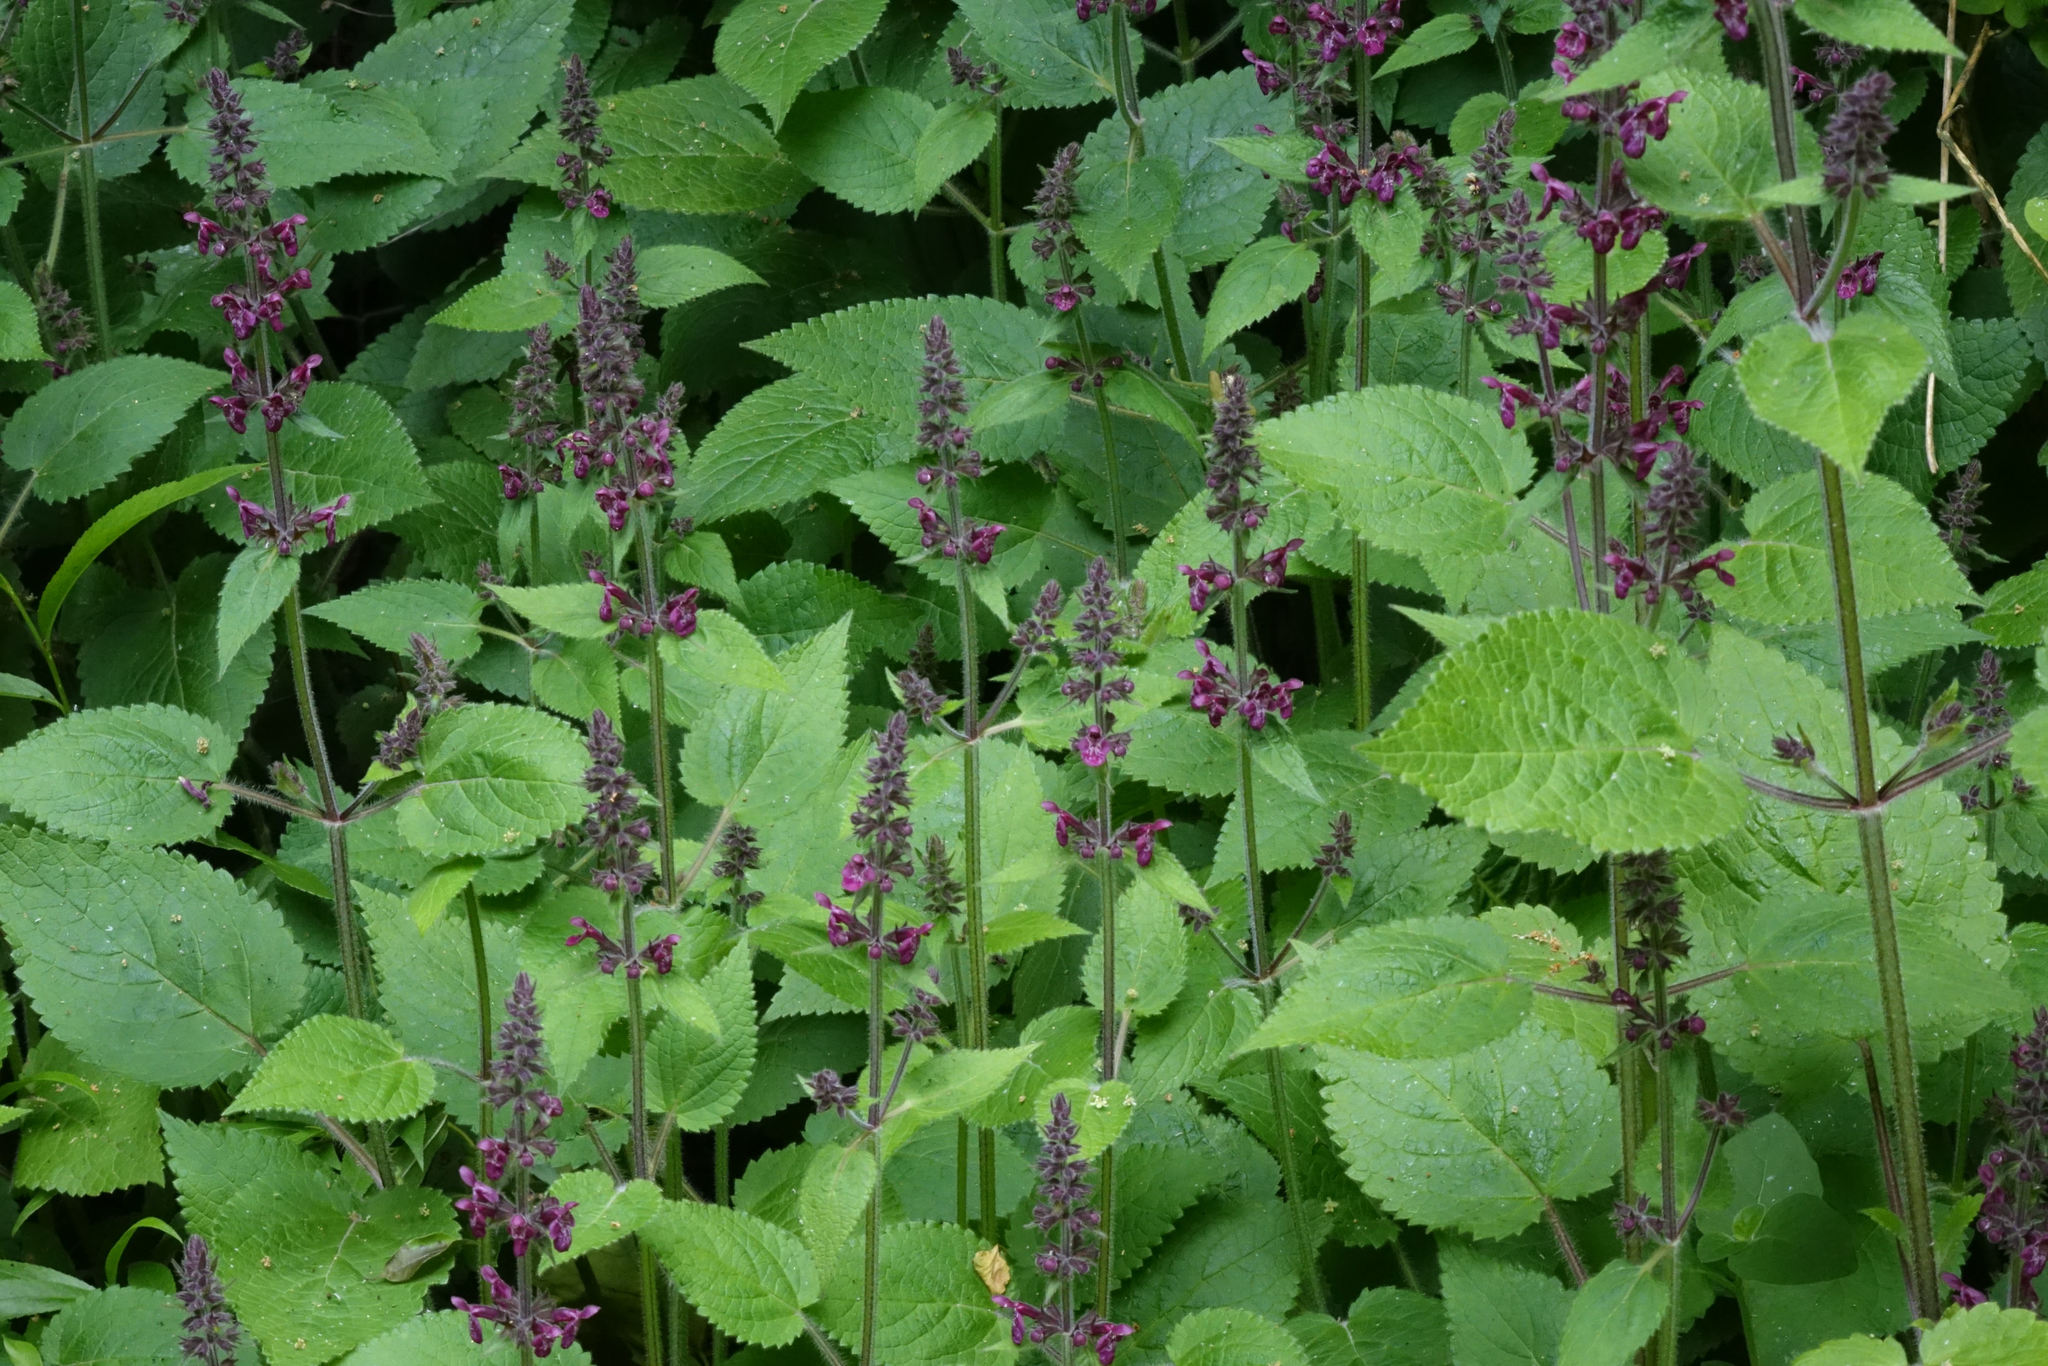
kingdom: Plantae
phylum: Tracheophyta
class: Magnoliopsida
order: Lamiales
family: Lamiaceae
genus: Stachys
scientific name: Stachys sylvatica
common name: Hedge woundwort
